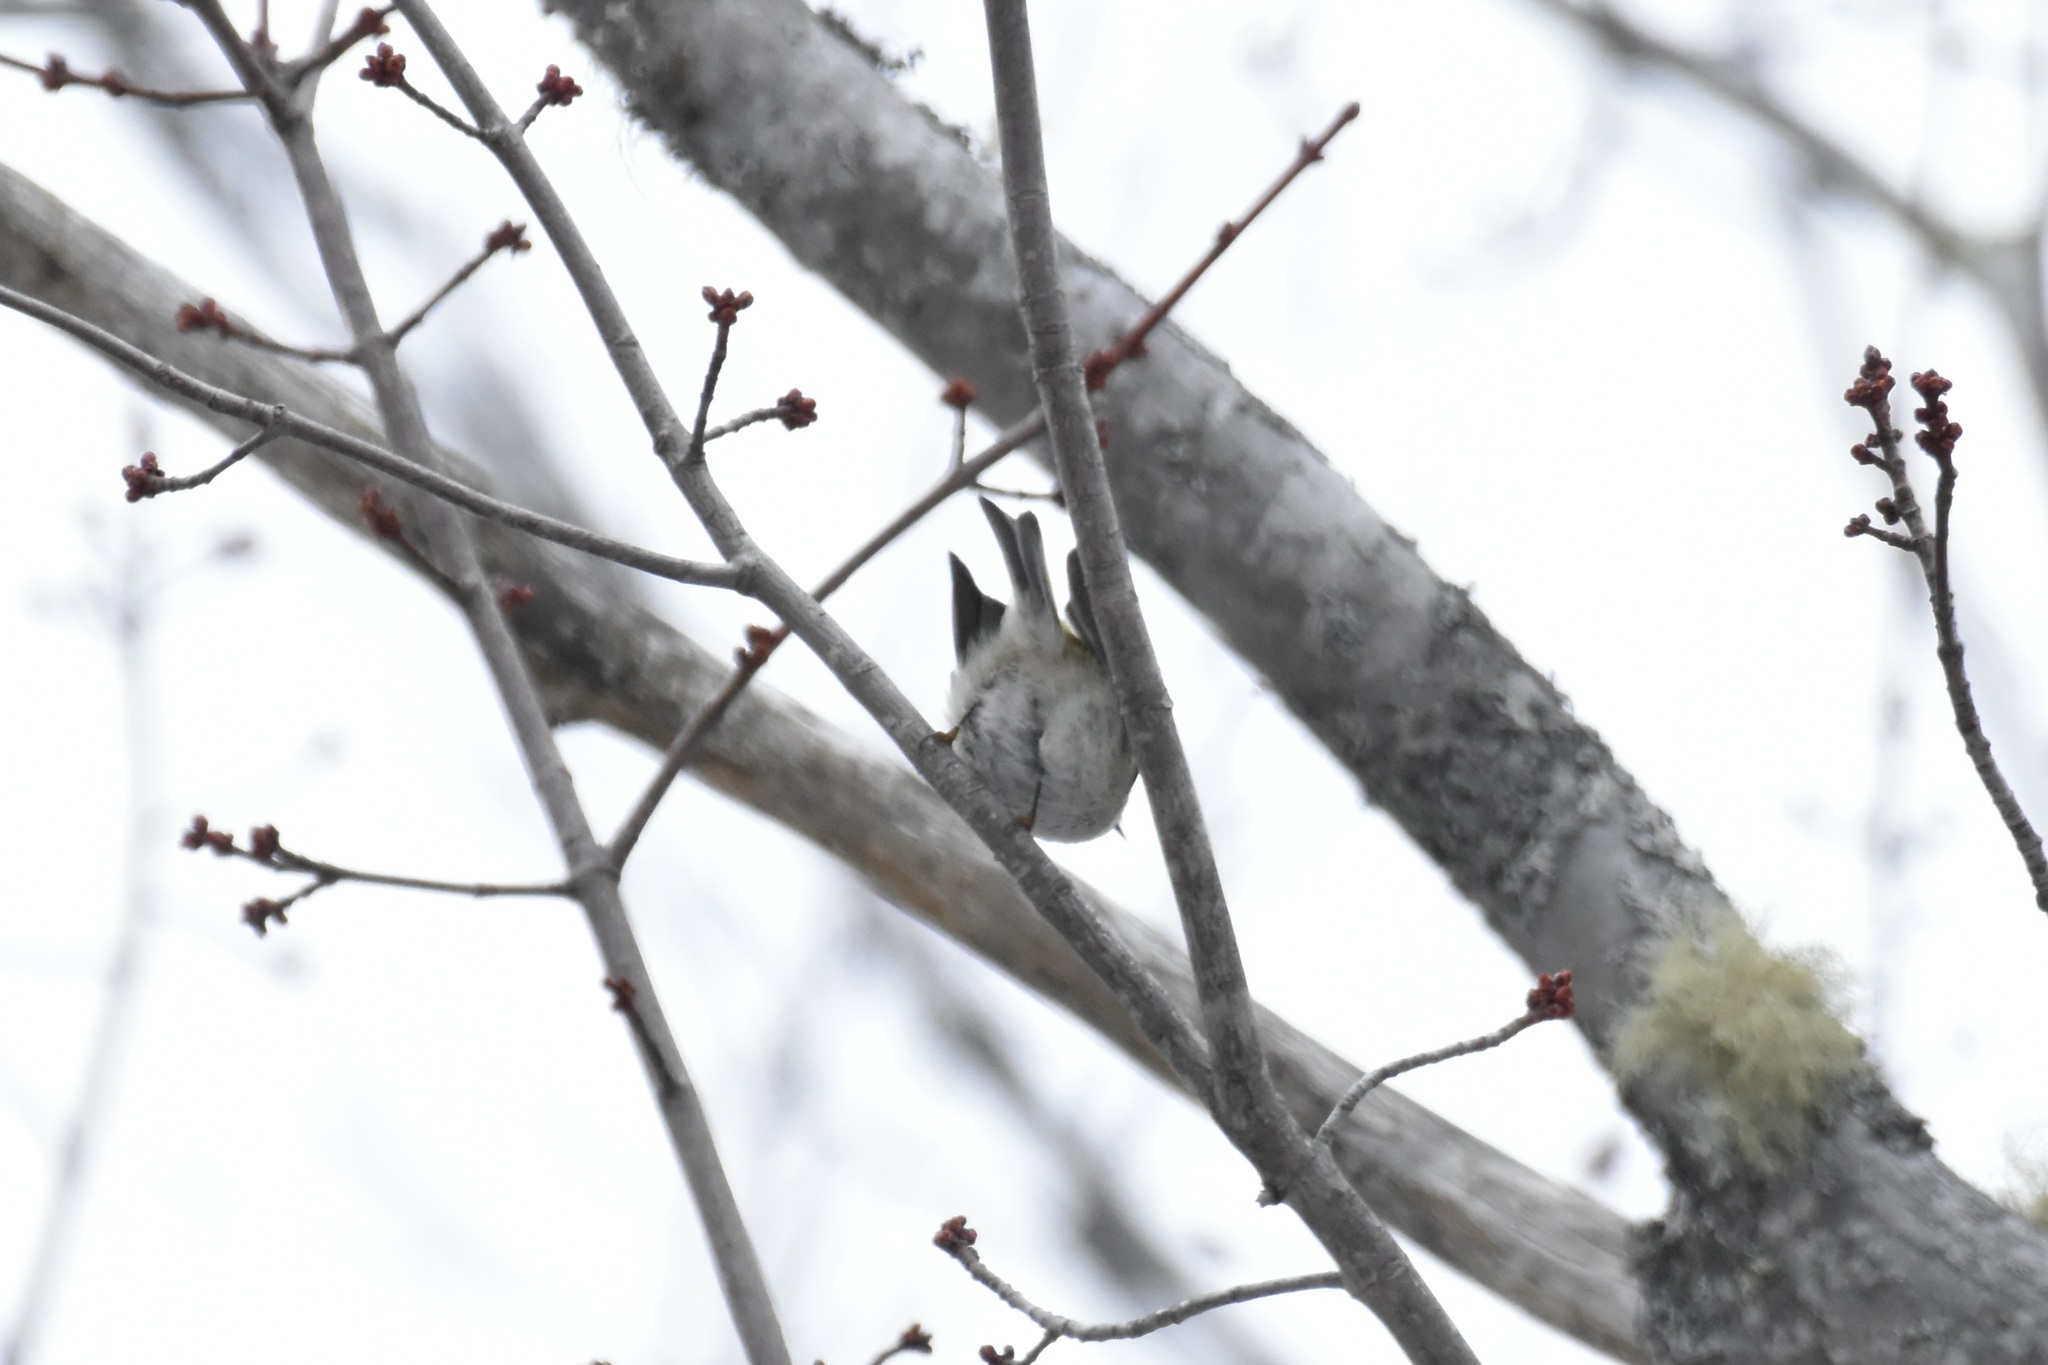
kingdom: Animalia
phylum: Chordata
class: Aves
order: Passeriformes
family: Regulidae
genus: Regulus
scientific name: Regulus satrapa
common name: Golden-crowned kinglet
